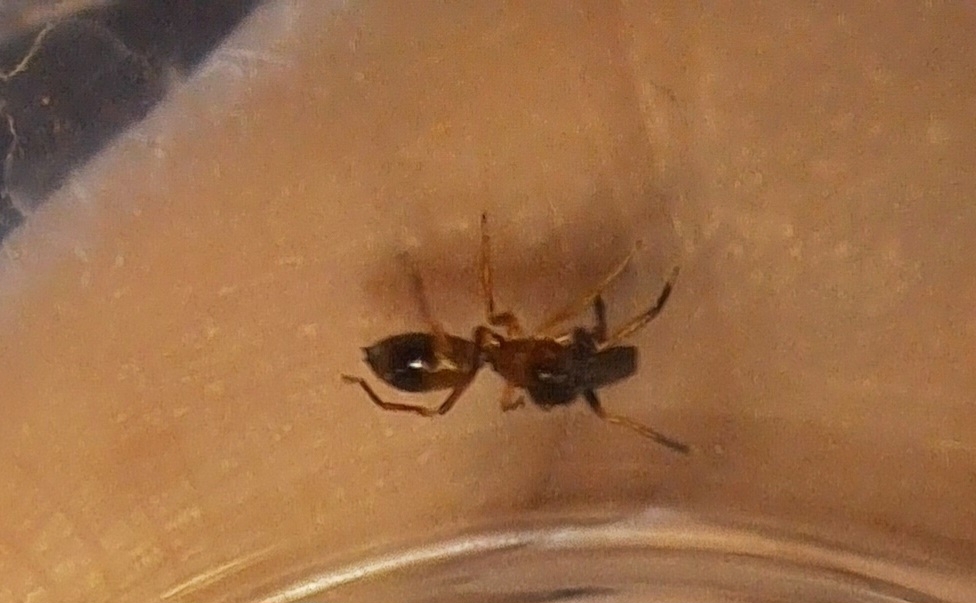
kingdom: Animalia
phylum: Arthropoda
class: Arachnida
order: Araneae
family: Salticidae
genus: Myrmarachne
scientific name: Myrmarachne formicaria
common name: Ant mimic jumping spider
